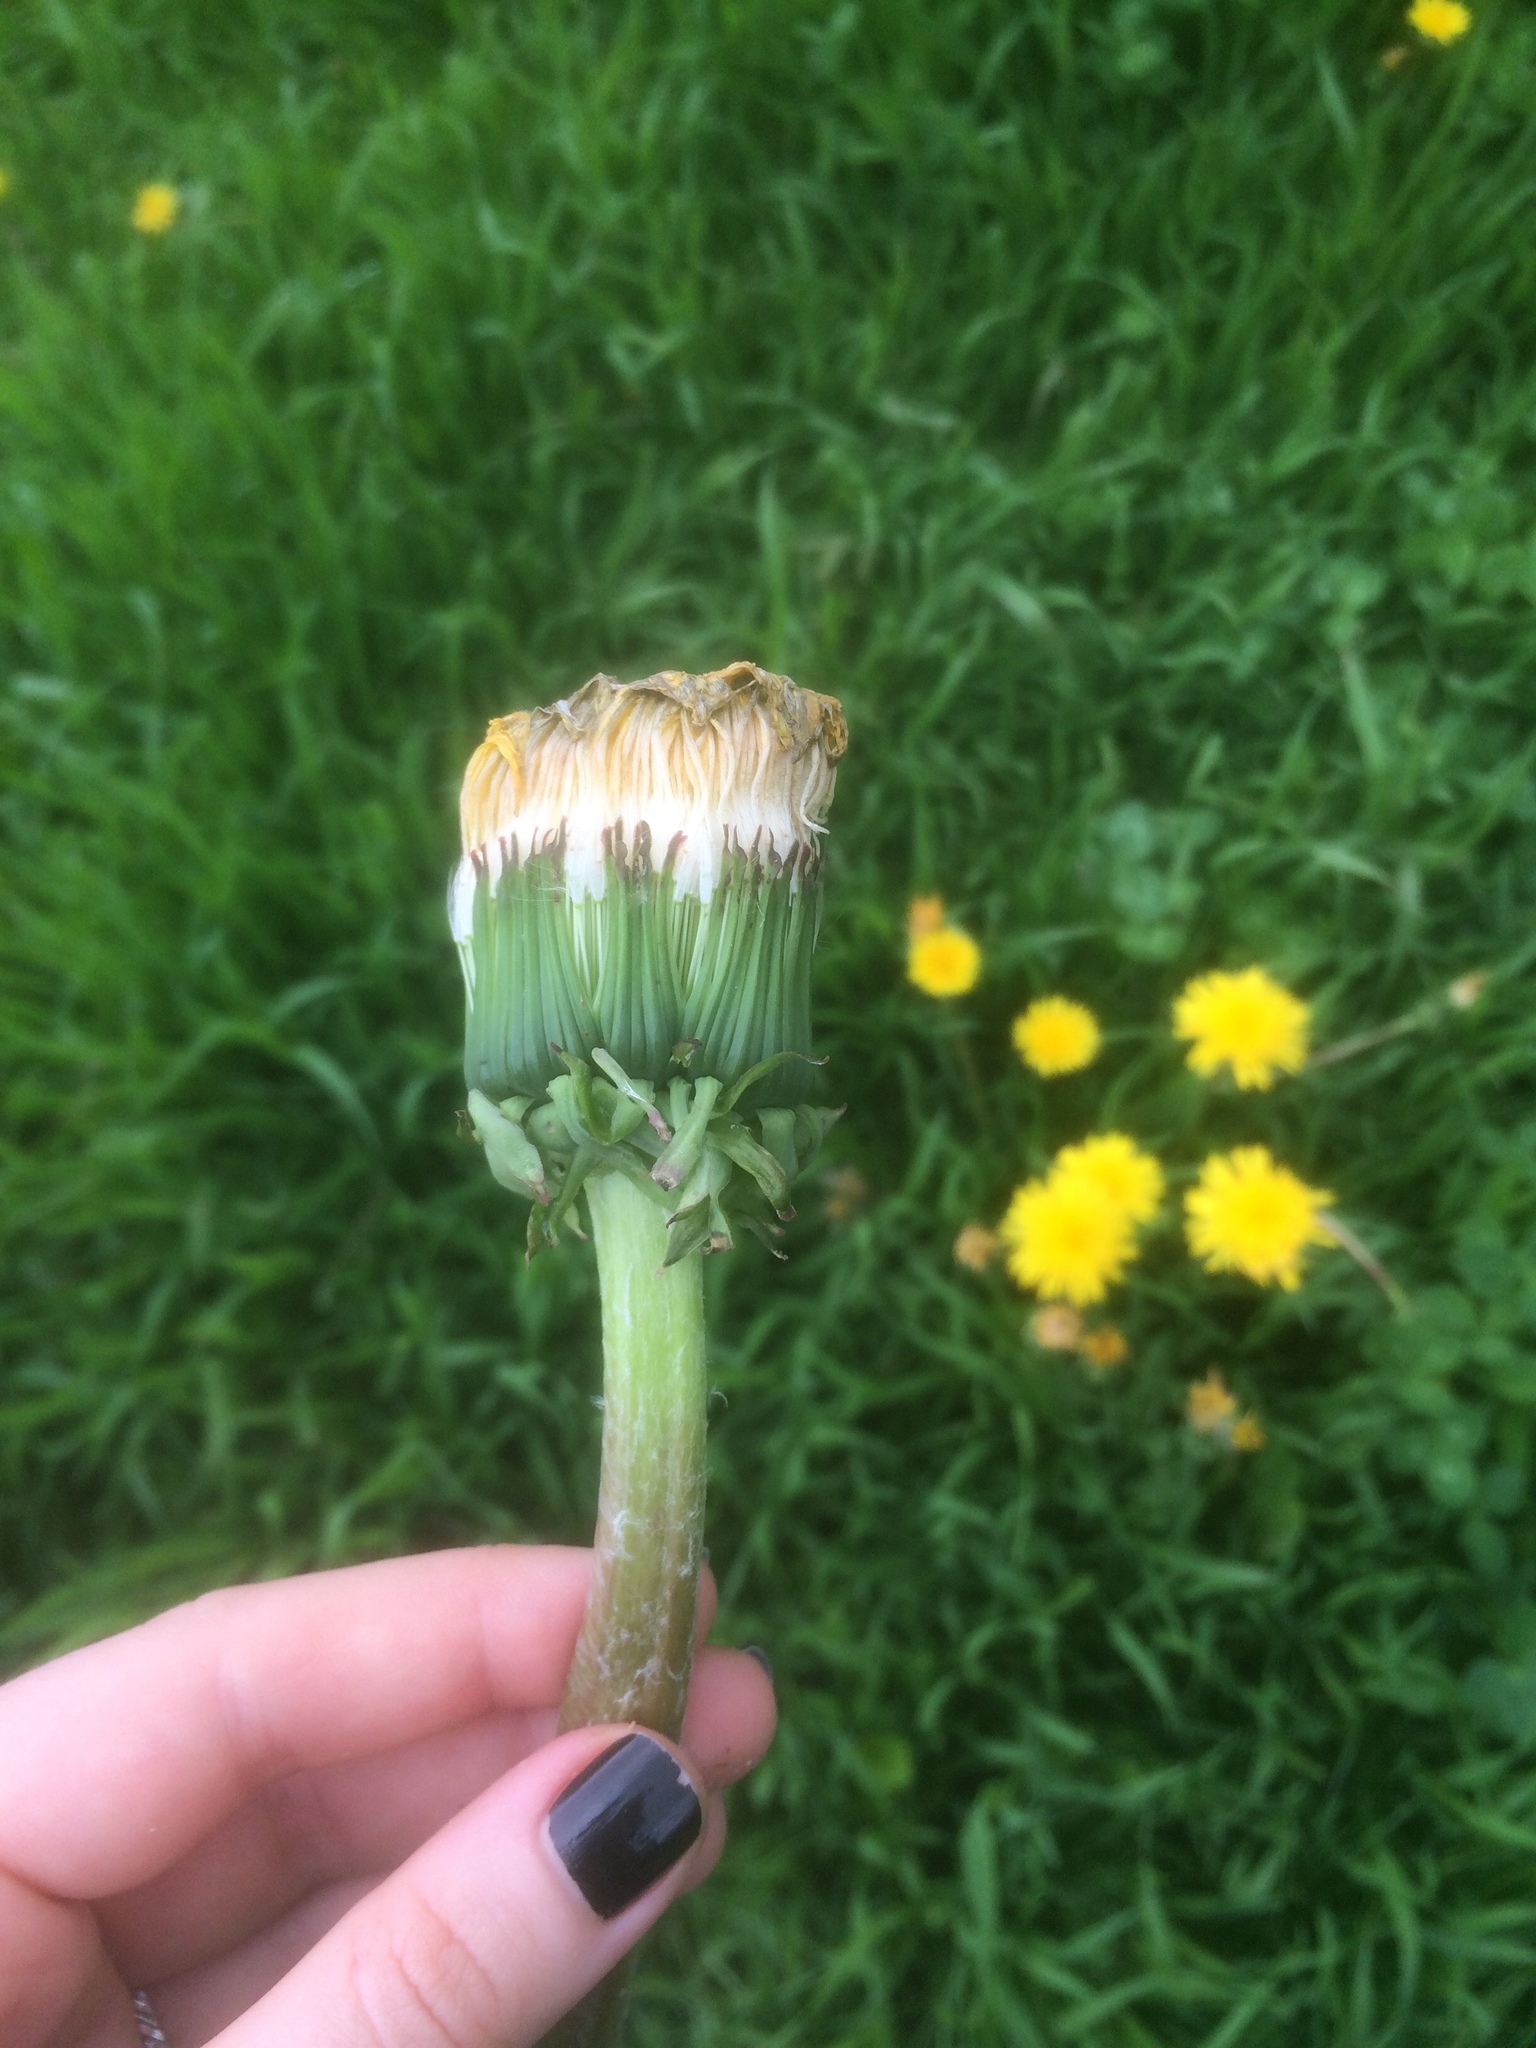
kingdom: Plantae
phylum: Tracheophyta
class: Magnoliopsida
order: Asterales
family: Asteraceae
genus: Taraxacum
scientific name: Taraxacum officinale
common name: Common dandelion
